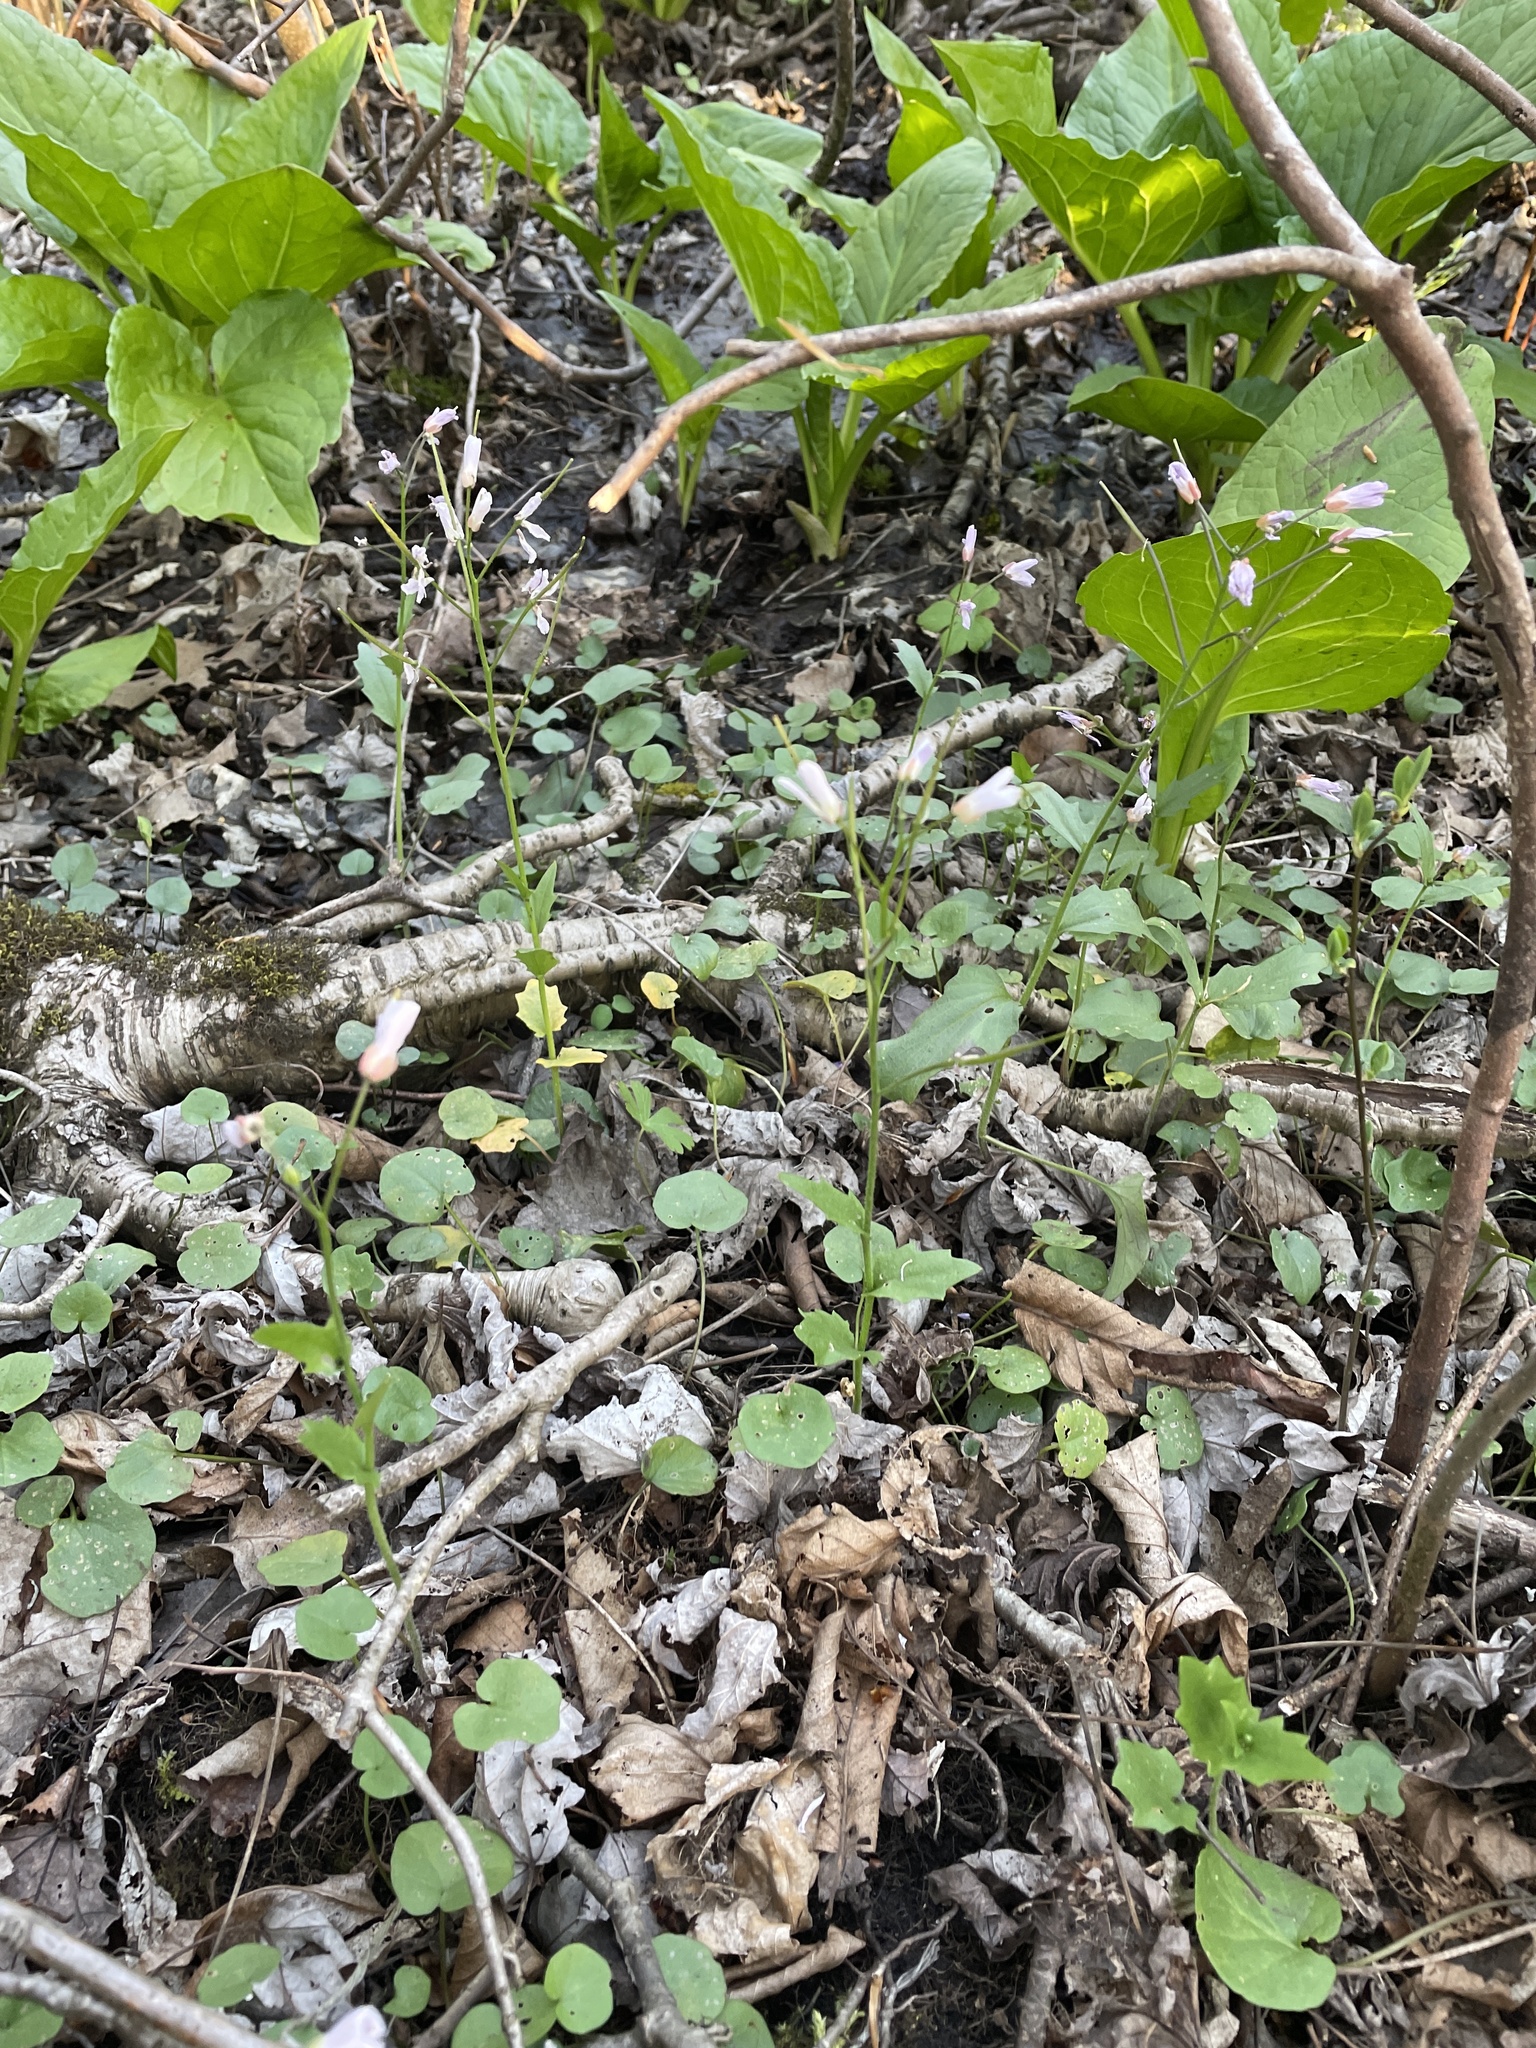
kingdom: Plantae
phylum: Tracheophyta
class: Magnoliopsida
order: Brassicales
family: Brassicaceae
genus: Cardamine
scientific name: Cardamine douglassii
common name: Purple cress
